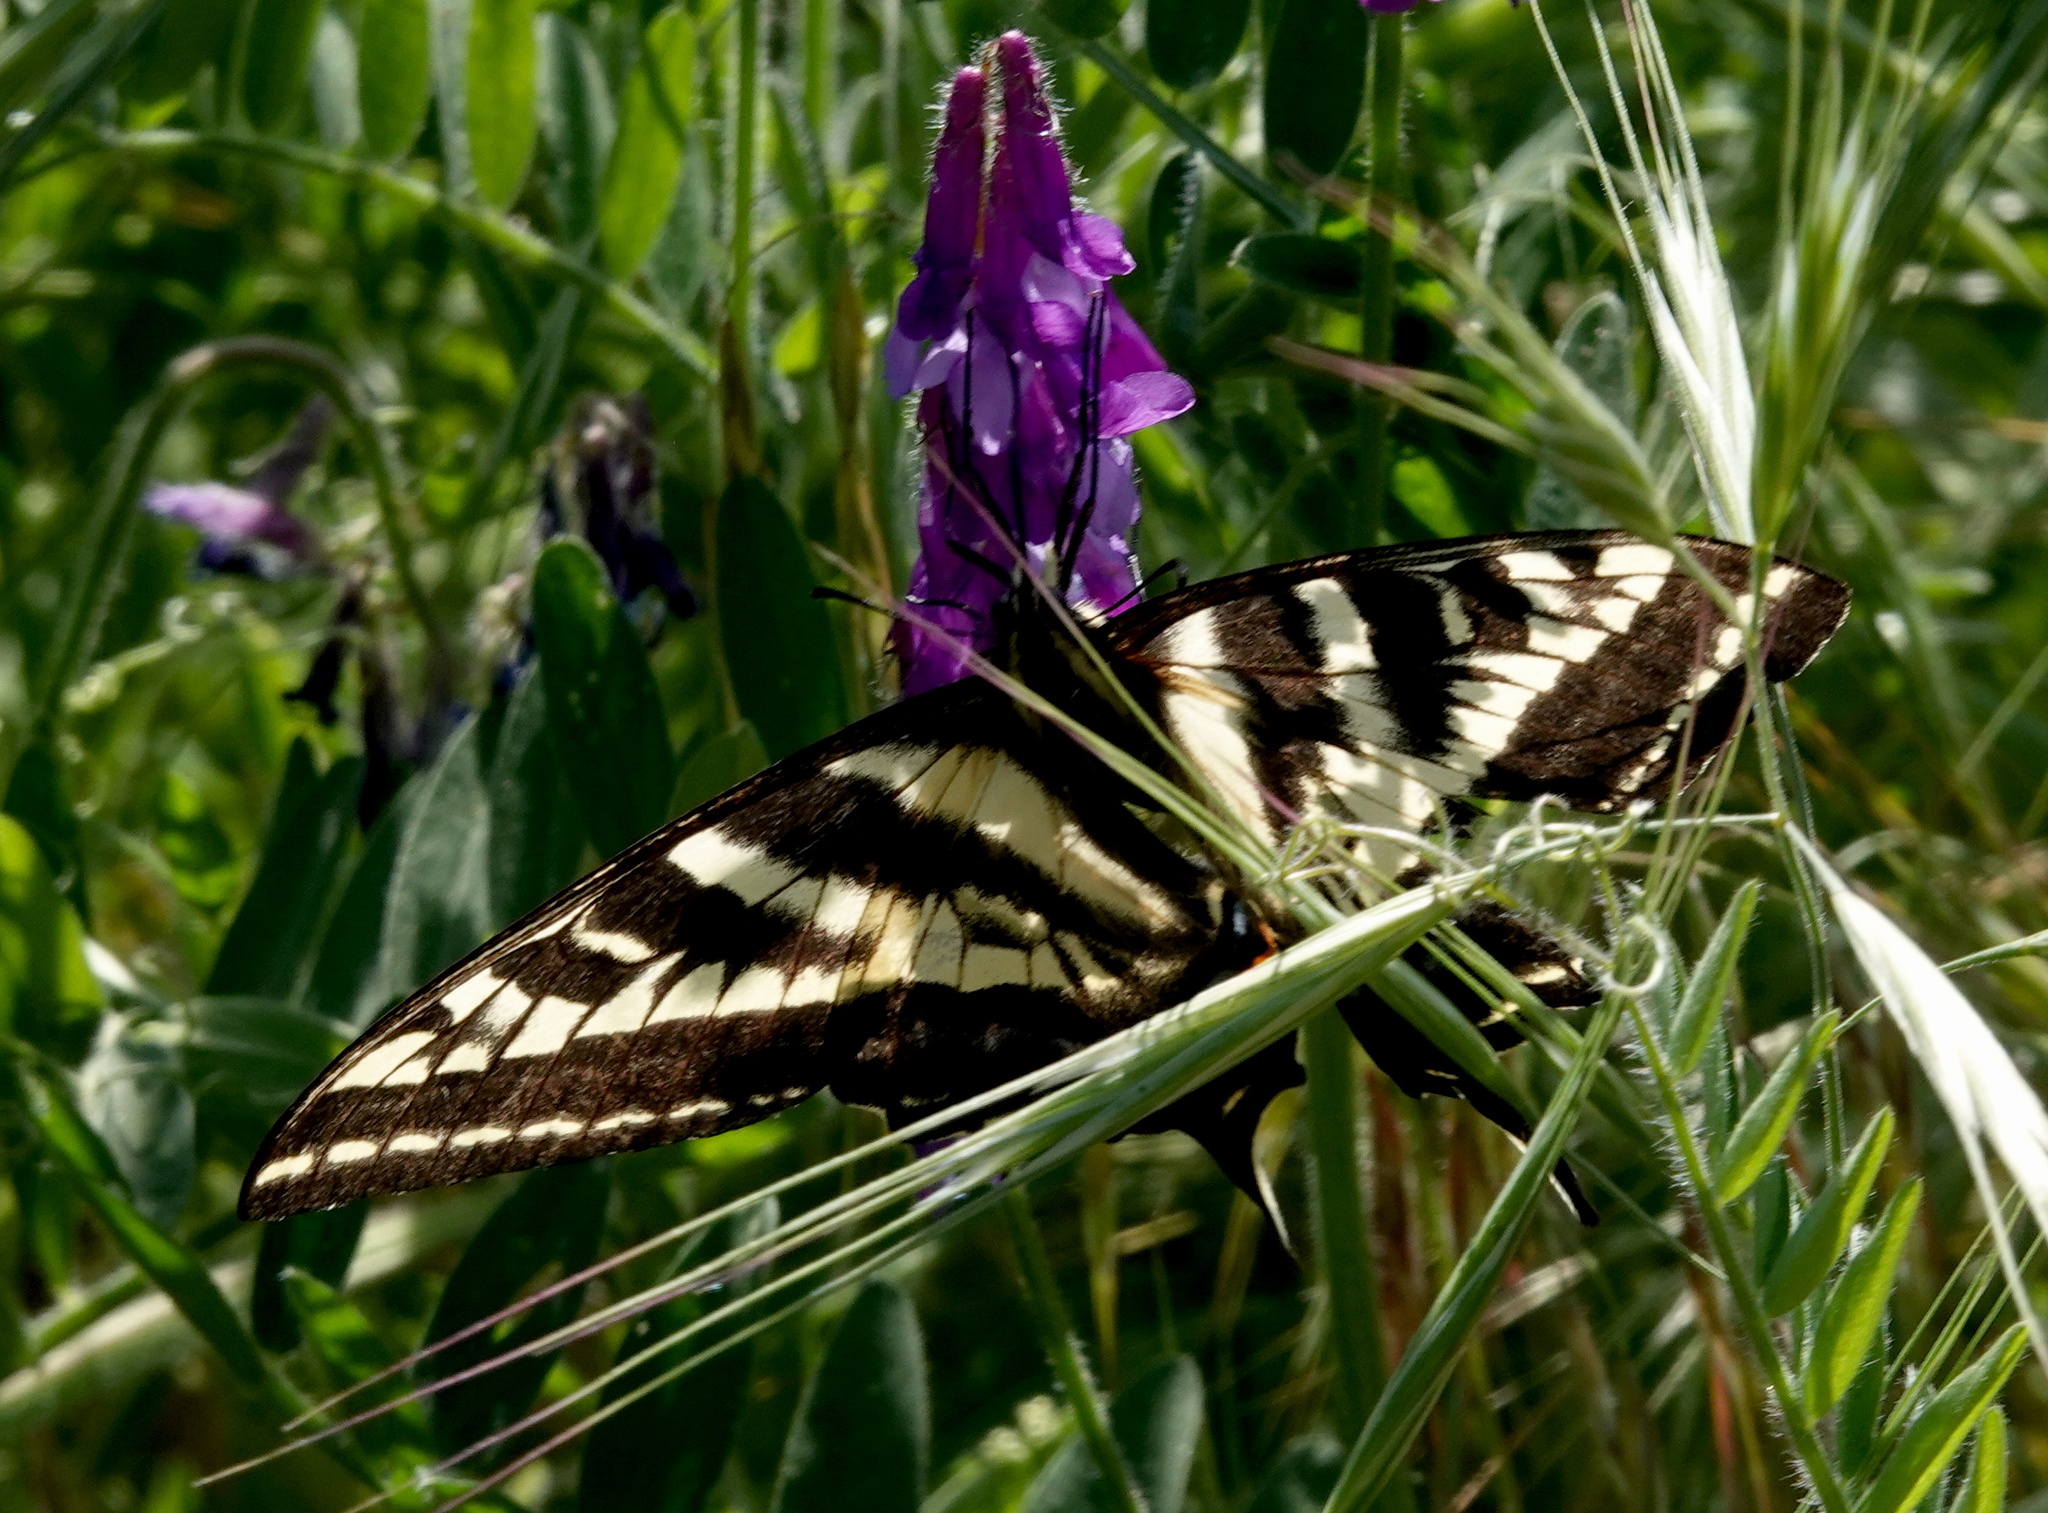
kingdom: Animalia
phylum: Arthropoda
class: Insecta
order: Lepidoptera
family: Papilionidae
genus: Papilio
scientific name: Papilio eurymedon
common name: Pale tiger swallowtail
